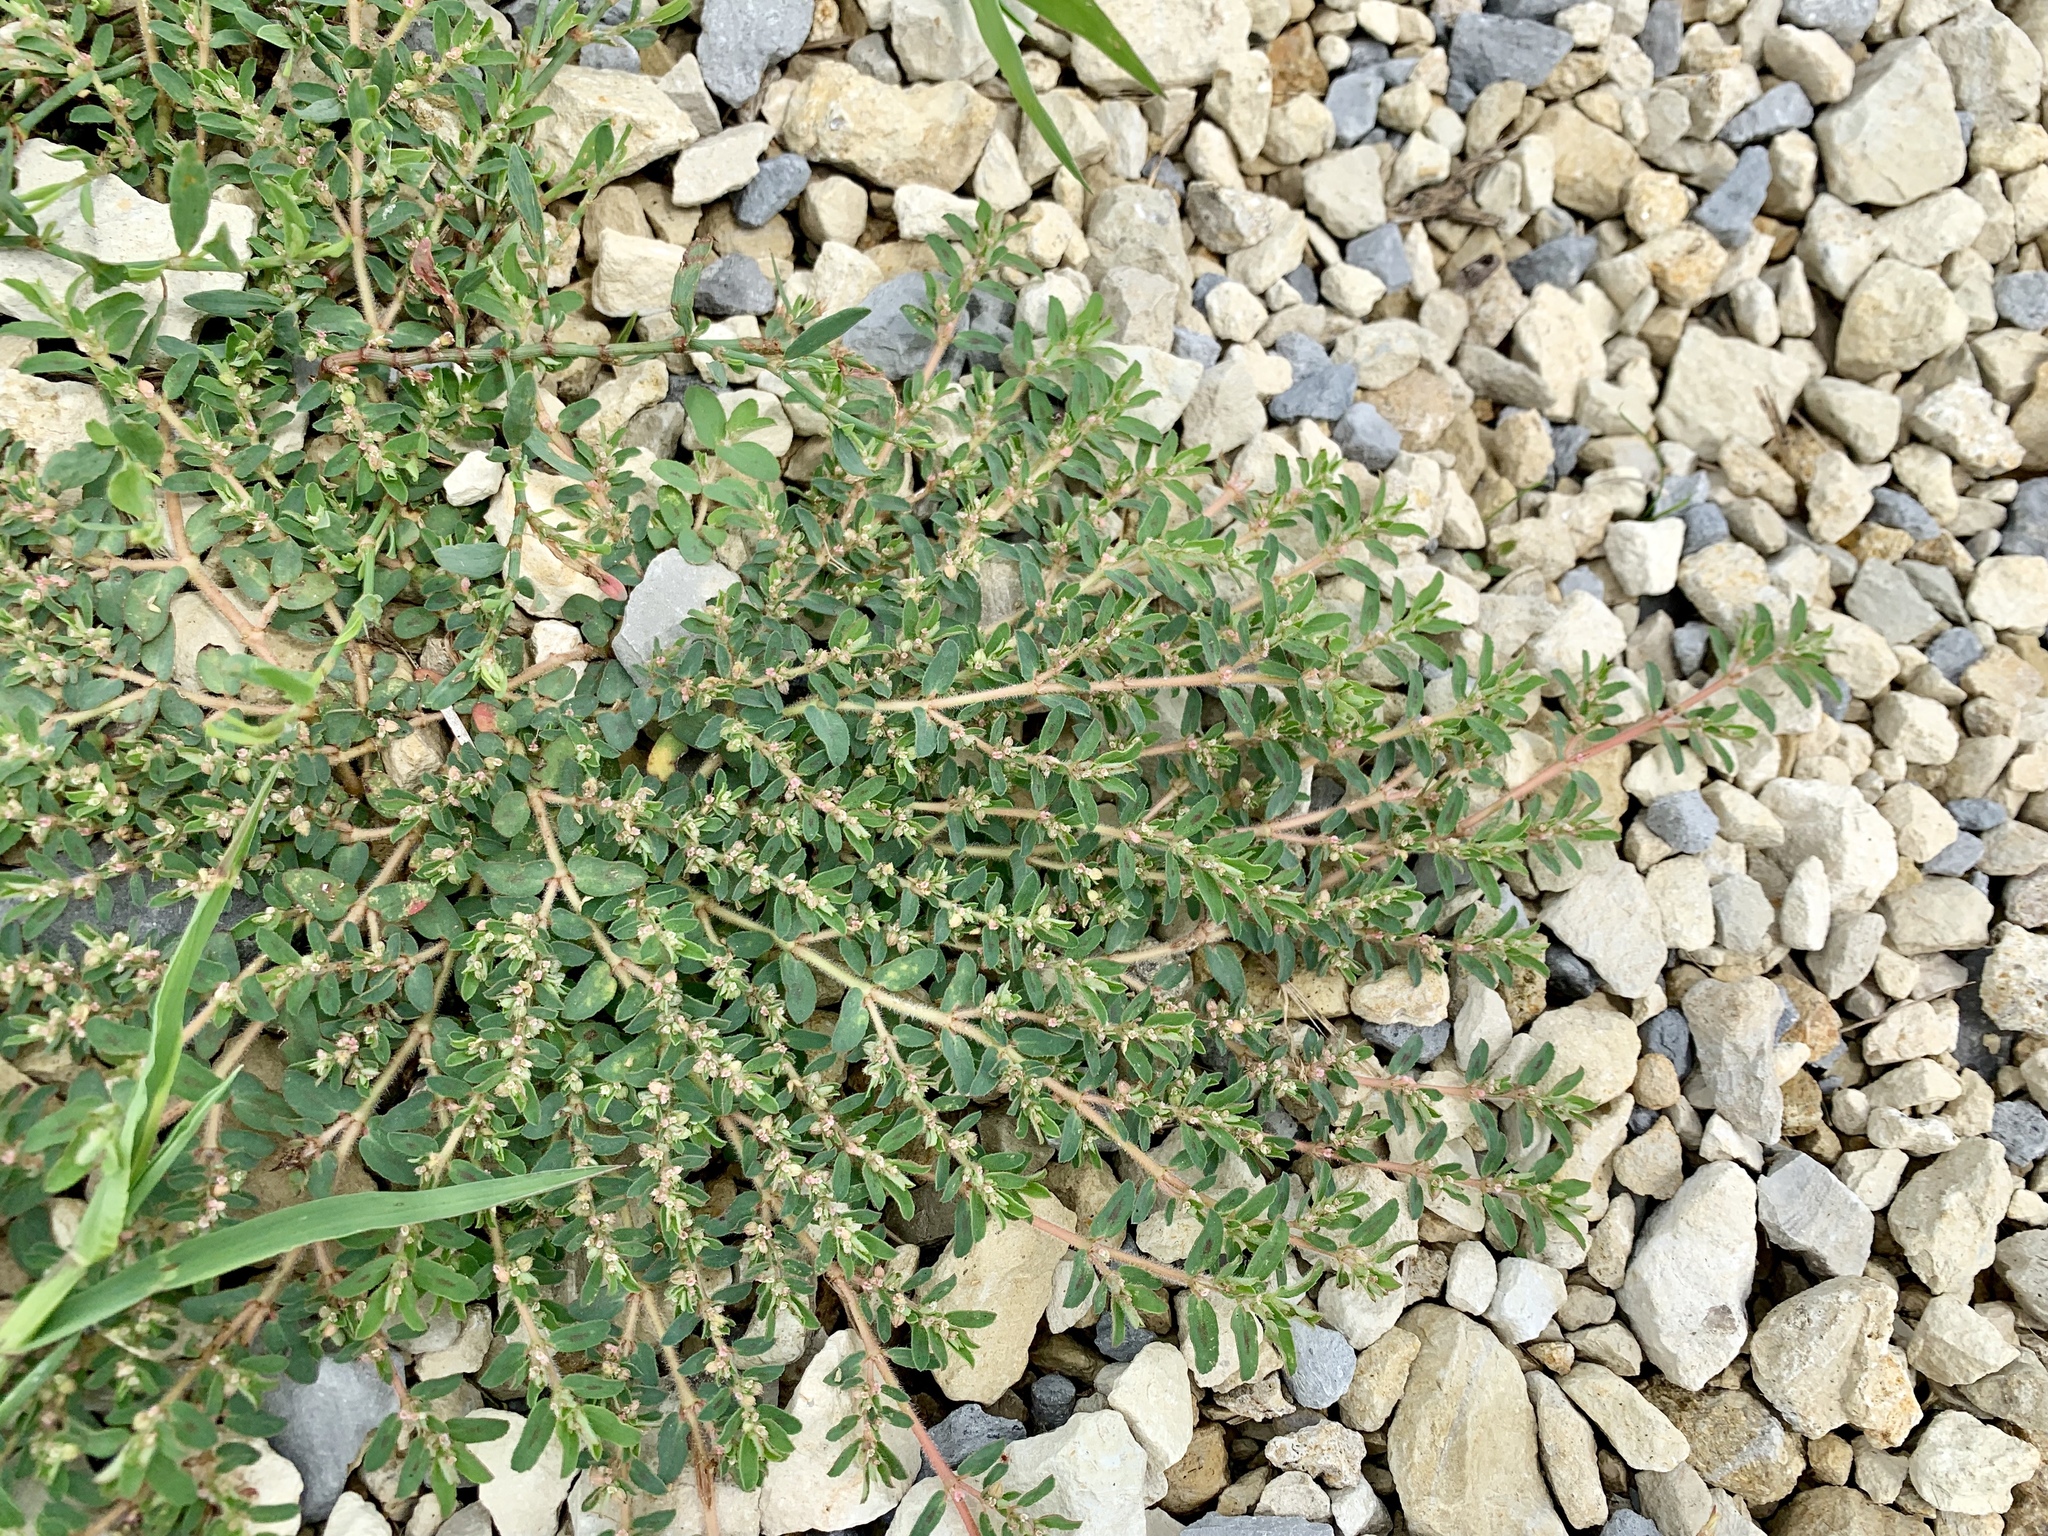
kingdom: Plantae
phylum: Tracheophyta
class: Magnoliopsida
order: Malpighiales
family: Euphorbiaceae
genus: Euphorbia
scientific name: Euphorbia maculata
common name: Spotted spurge
